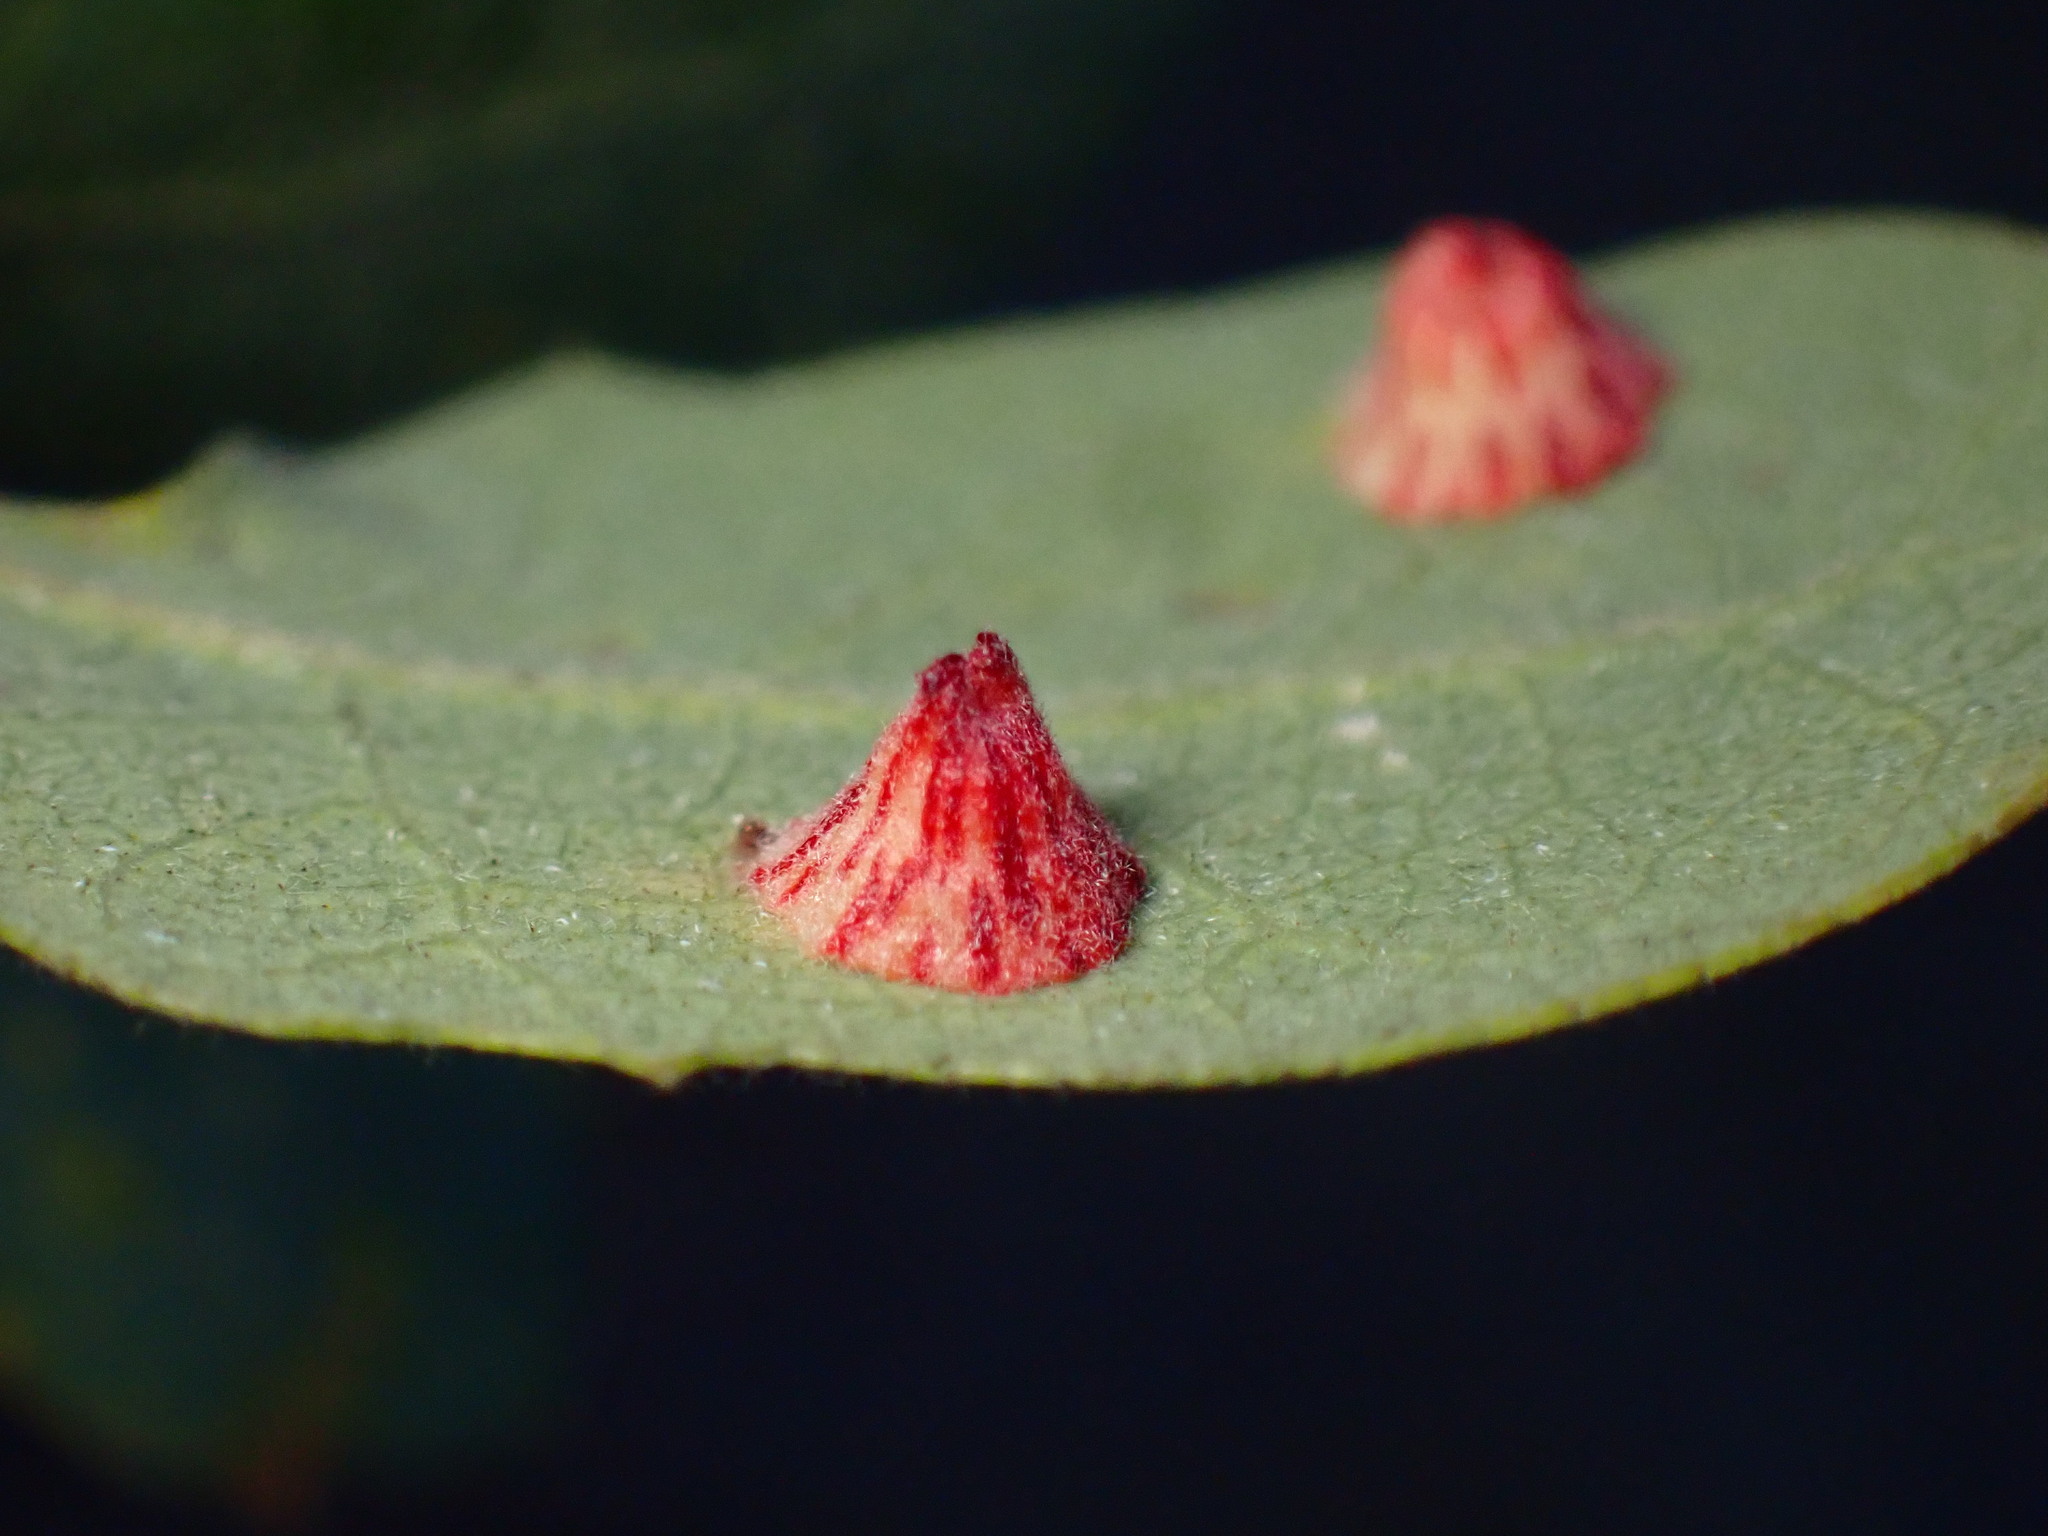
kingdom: Animalia
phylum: Arthropoda
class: Insecta
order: Hymenoptera
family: Cynipidae
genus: Andricus
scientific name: Andricus
